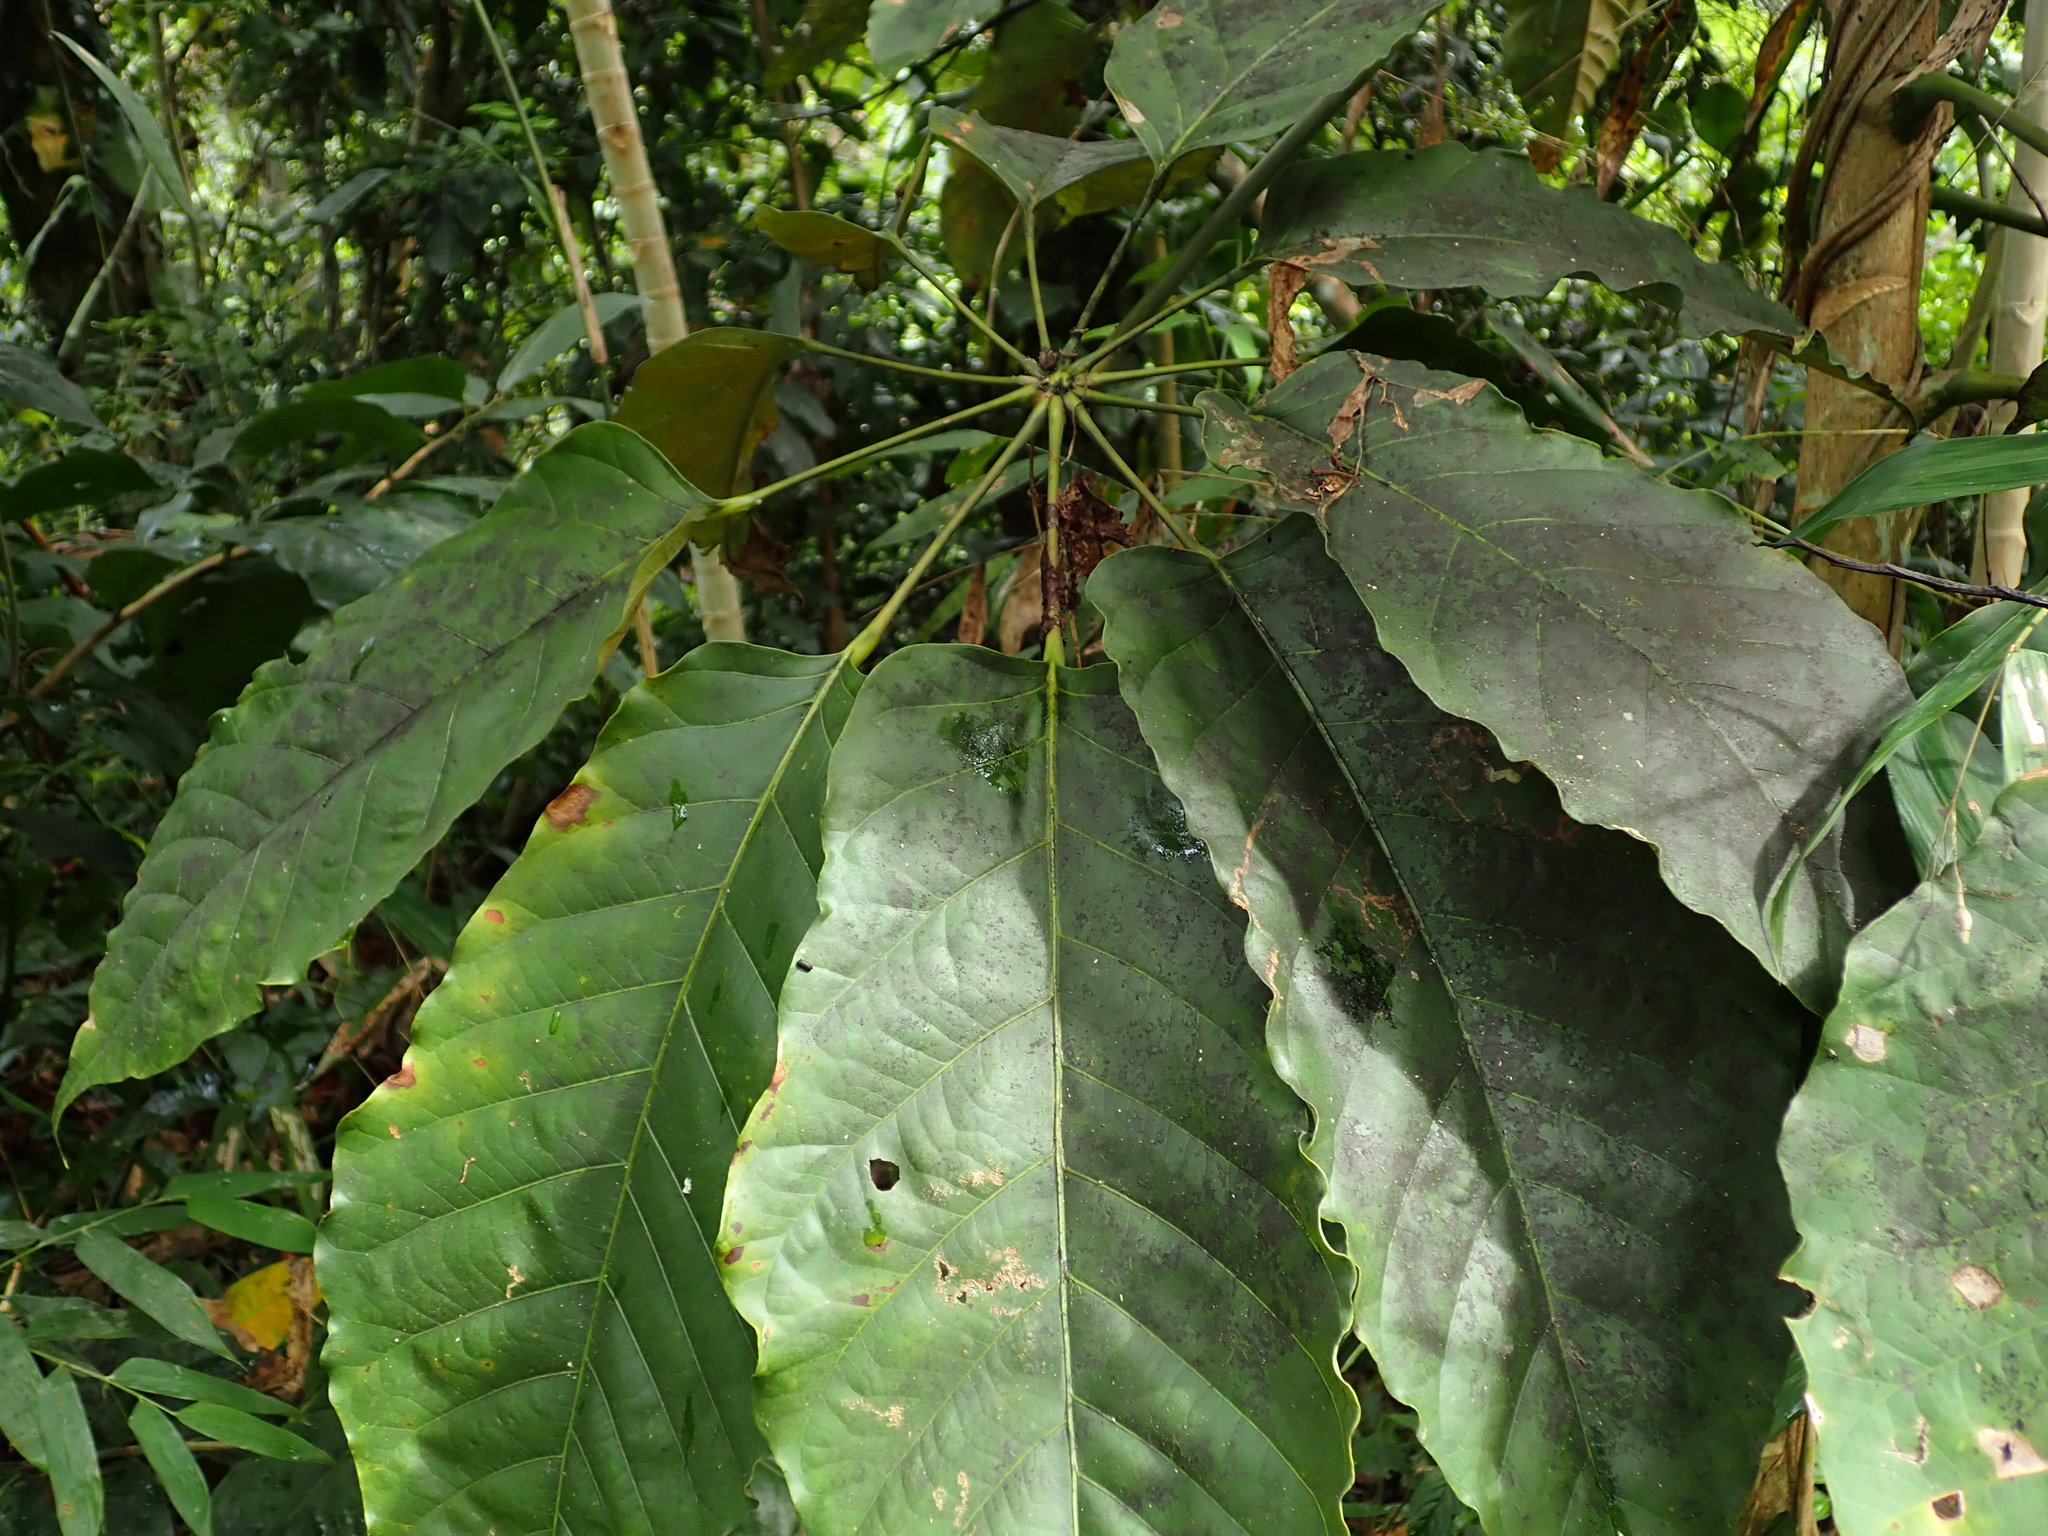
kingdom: Plantae
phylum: Tracheophyta
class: Magnoliopsida
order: Apiales
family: Araliaceae
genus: Didymopanax
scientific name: Didymopanax morototoni
